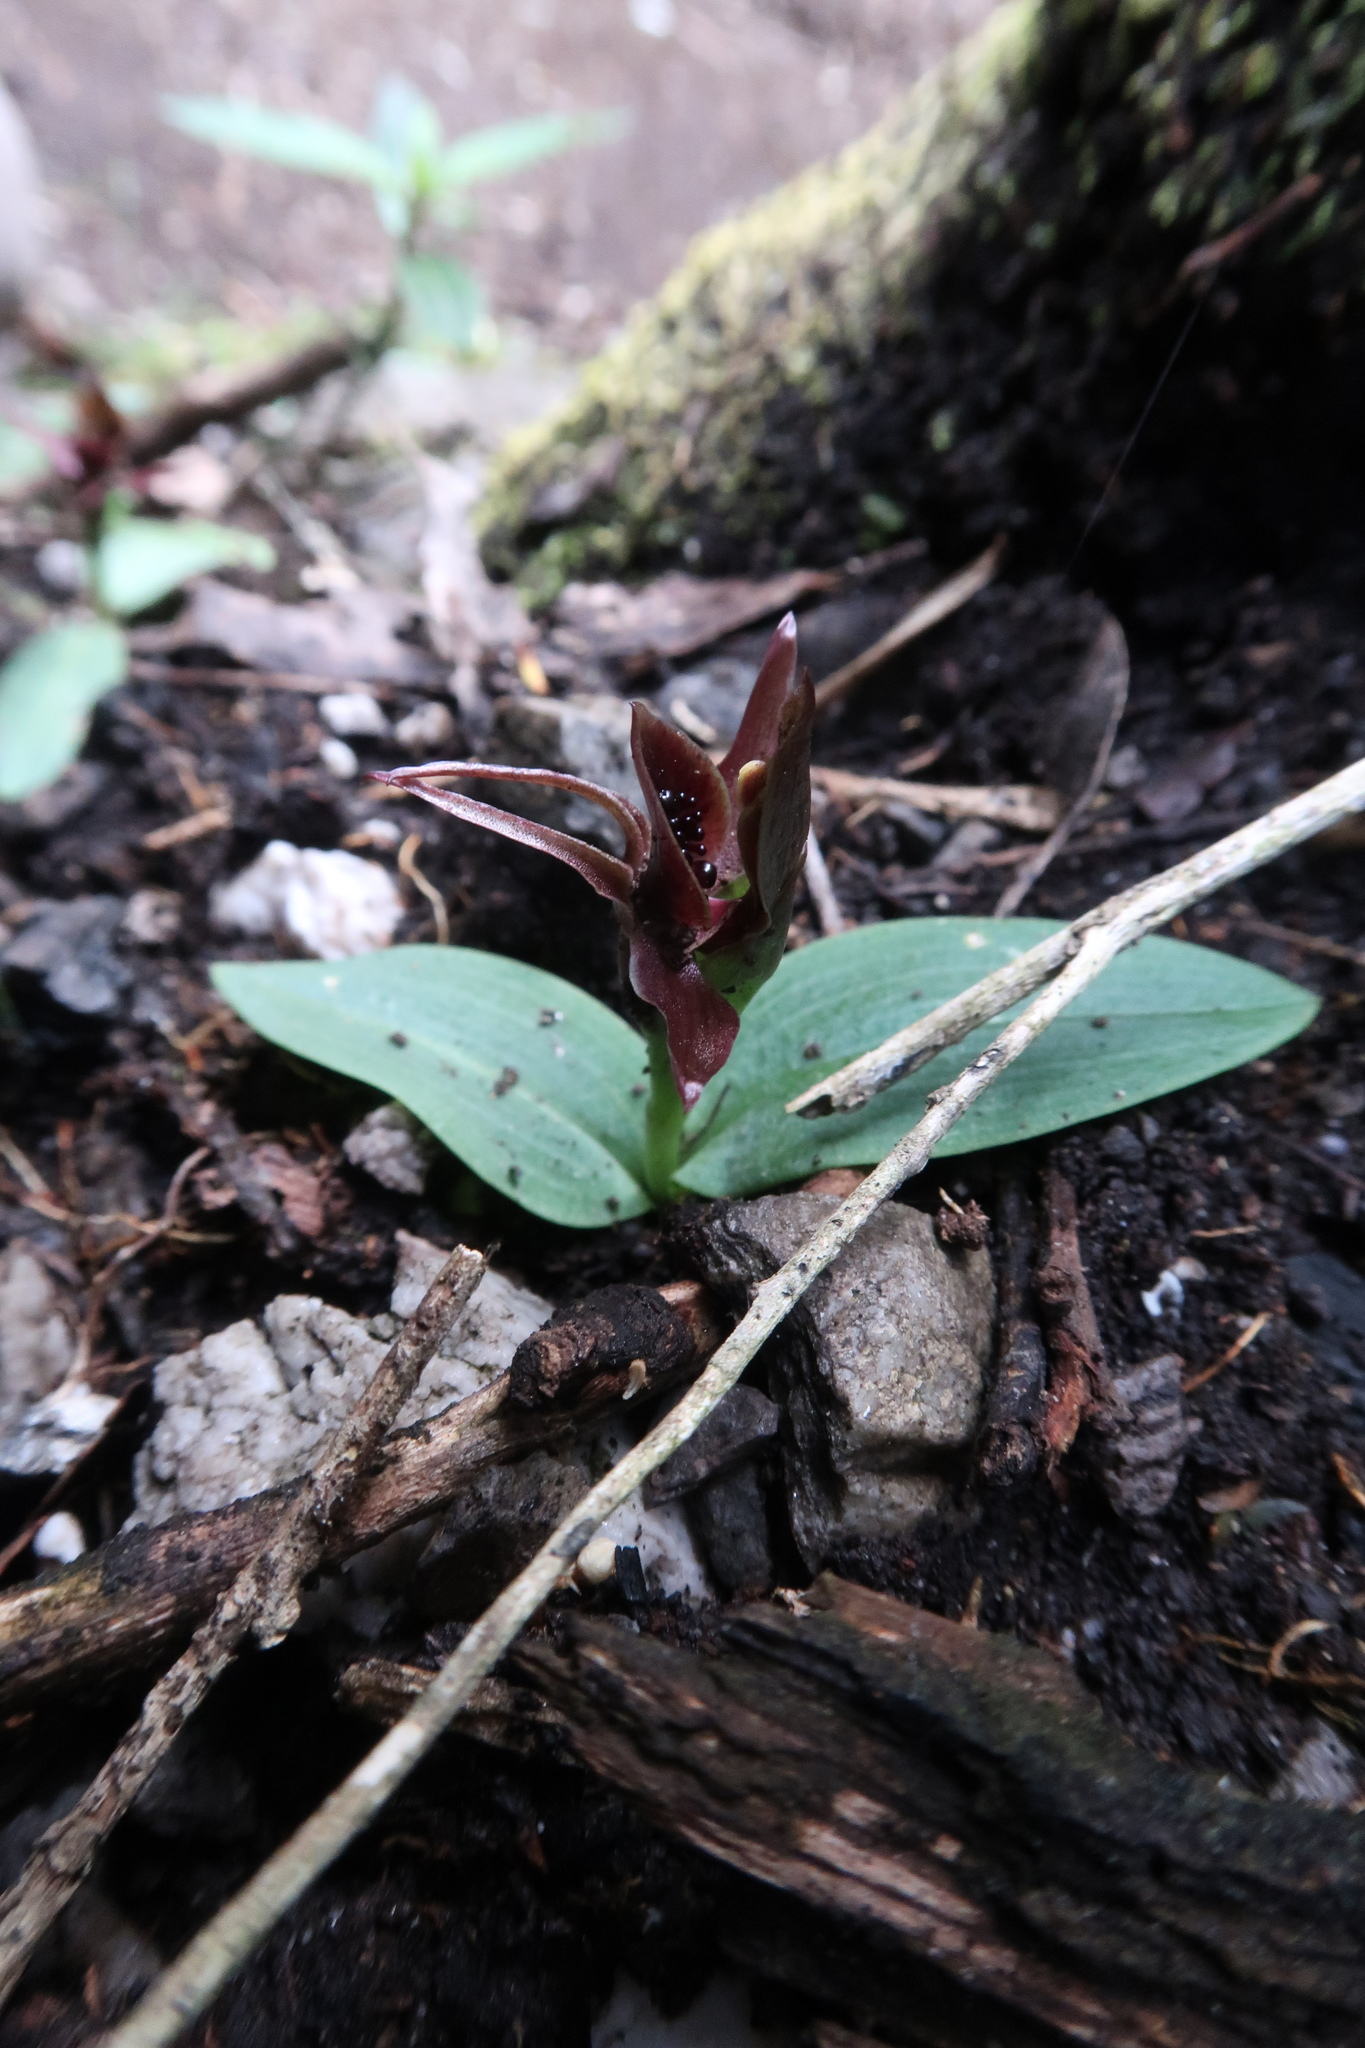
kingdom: Plantae
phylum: Tracheophyta
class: Liliopsida
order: Asparagales
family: Orchidaceae
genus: Chiloglottis
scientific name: Chiloglottis grammata
